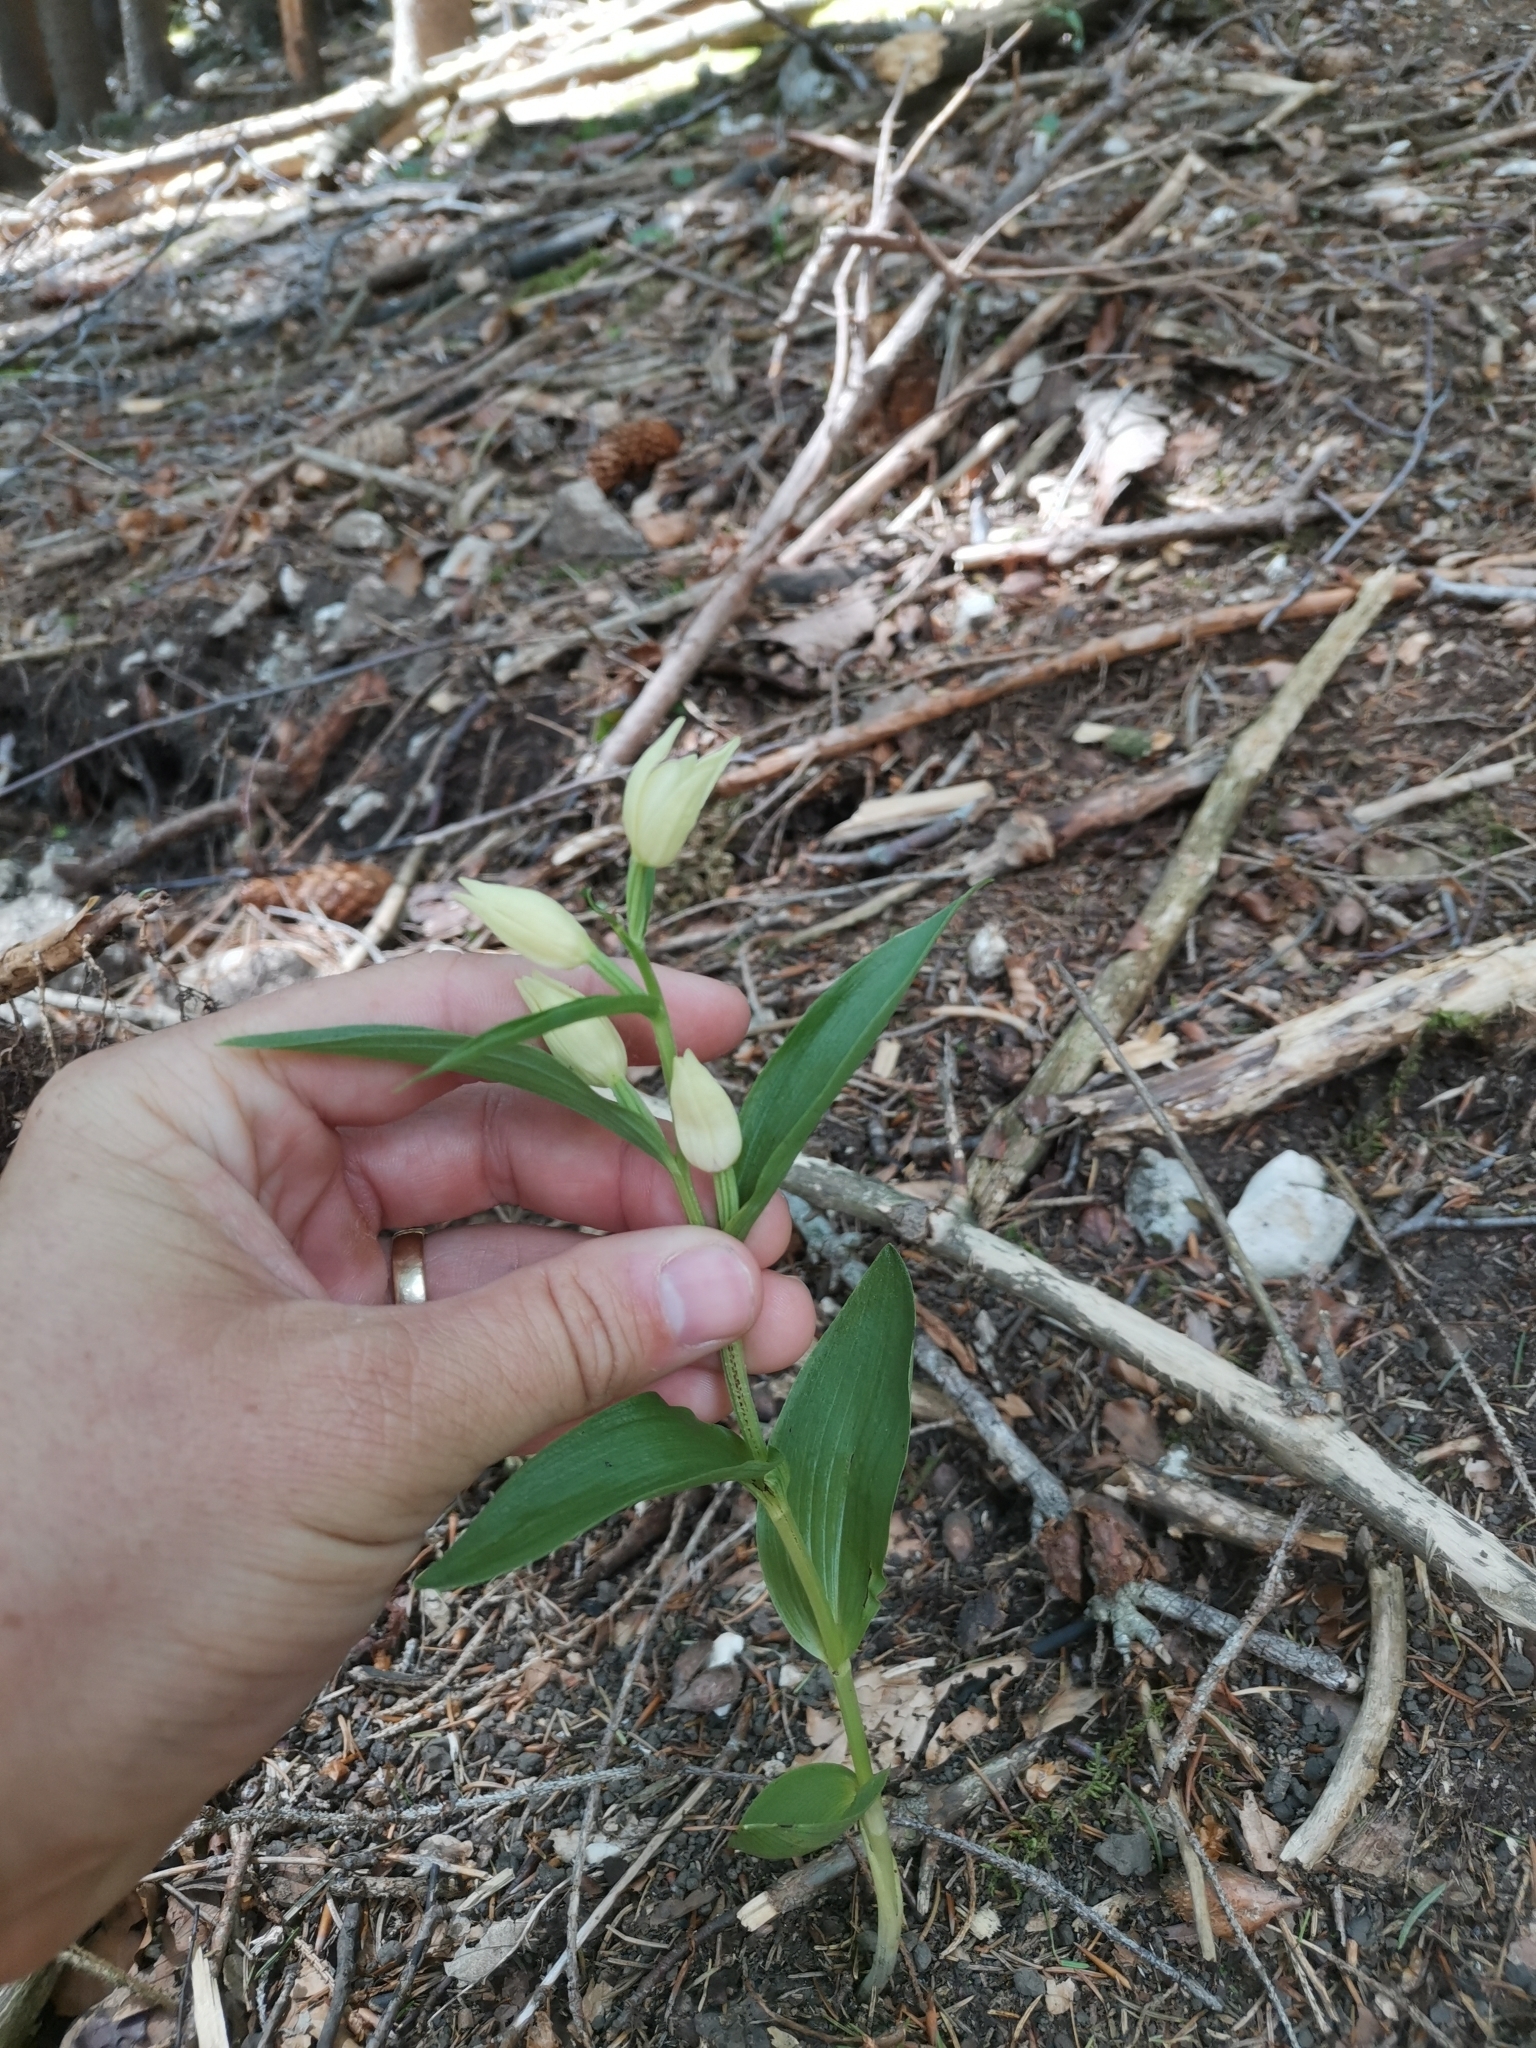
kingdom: Plantae
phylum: Tracheophyta
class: Liliopsida
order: Asparagales
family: Orchidaceae
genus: Cephalanthera
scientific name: Cephalanthera damasonium
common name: White helleborine
